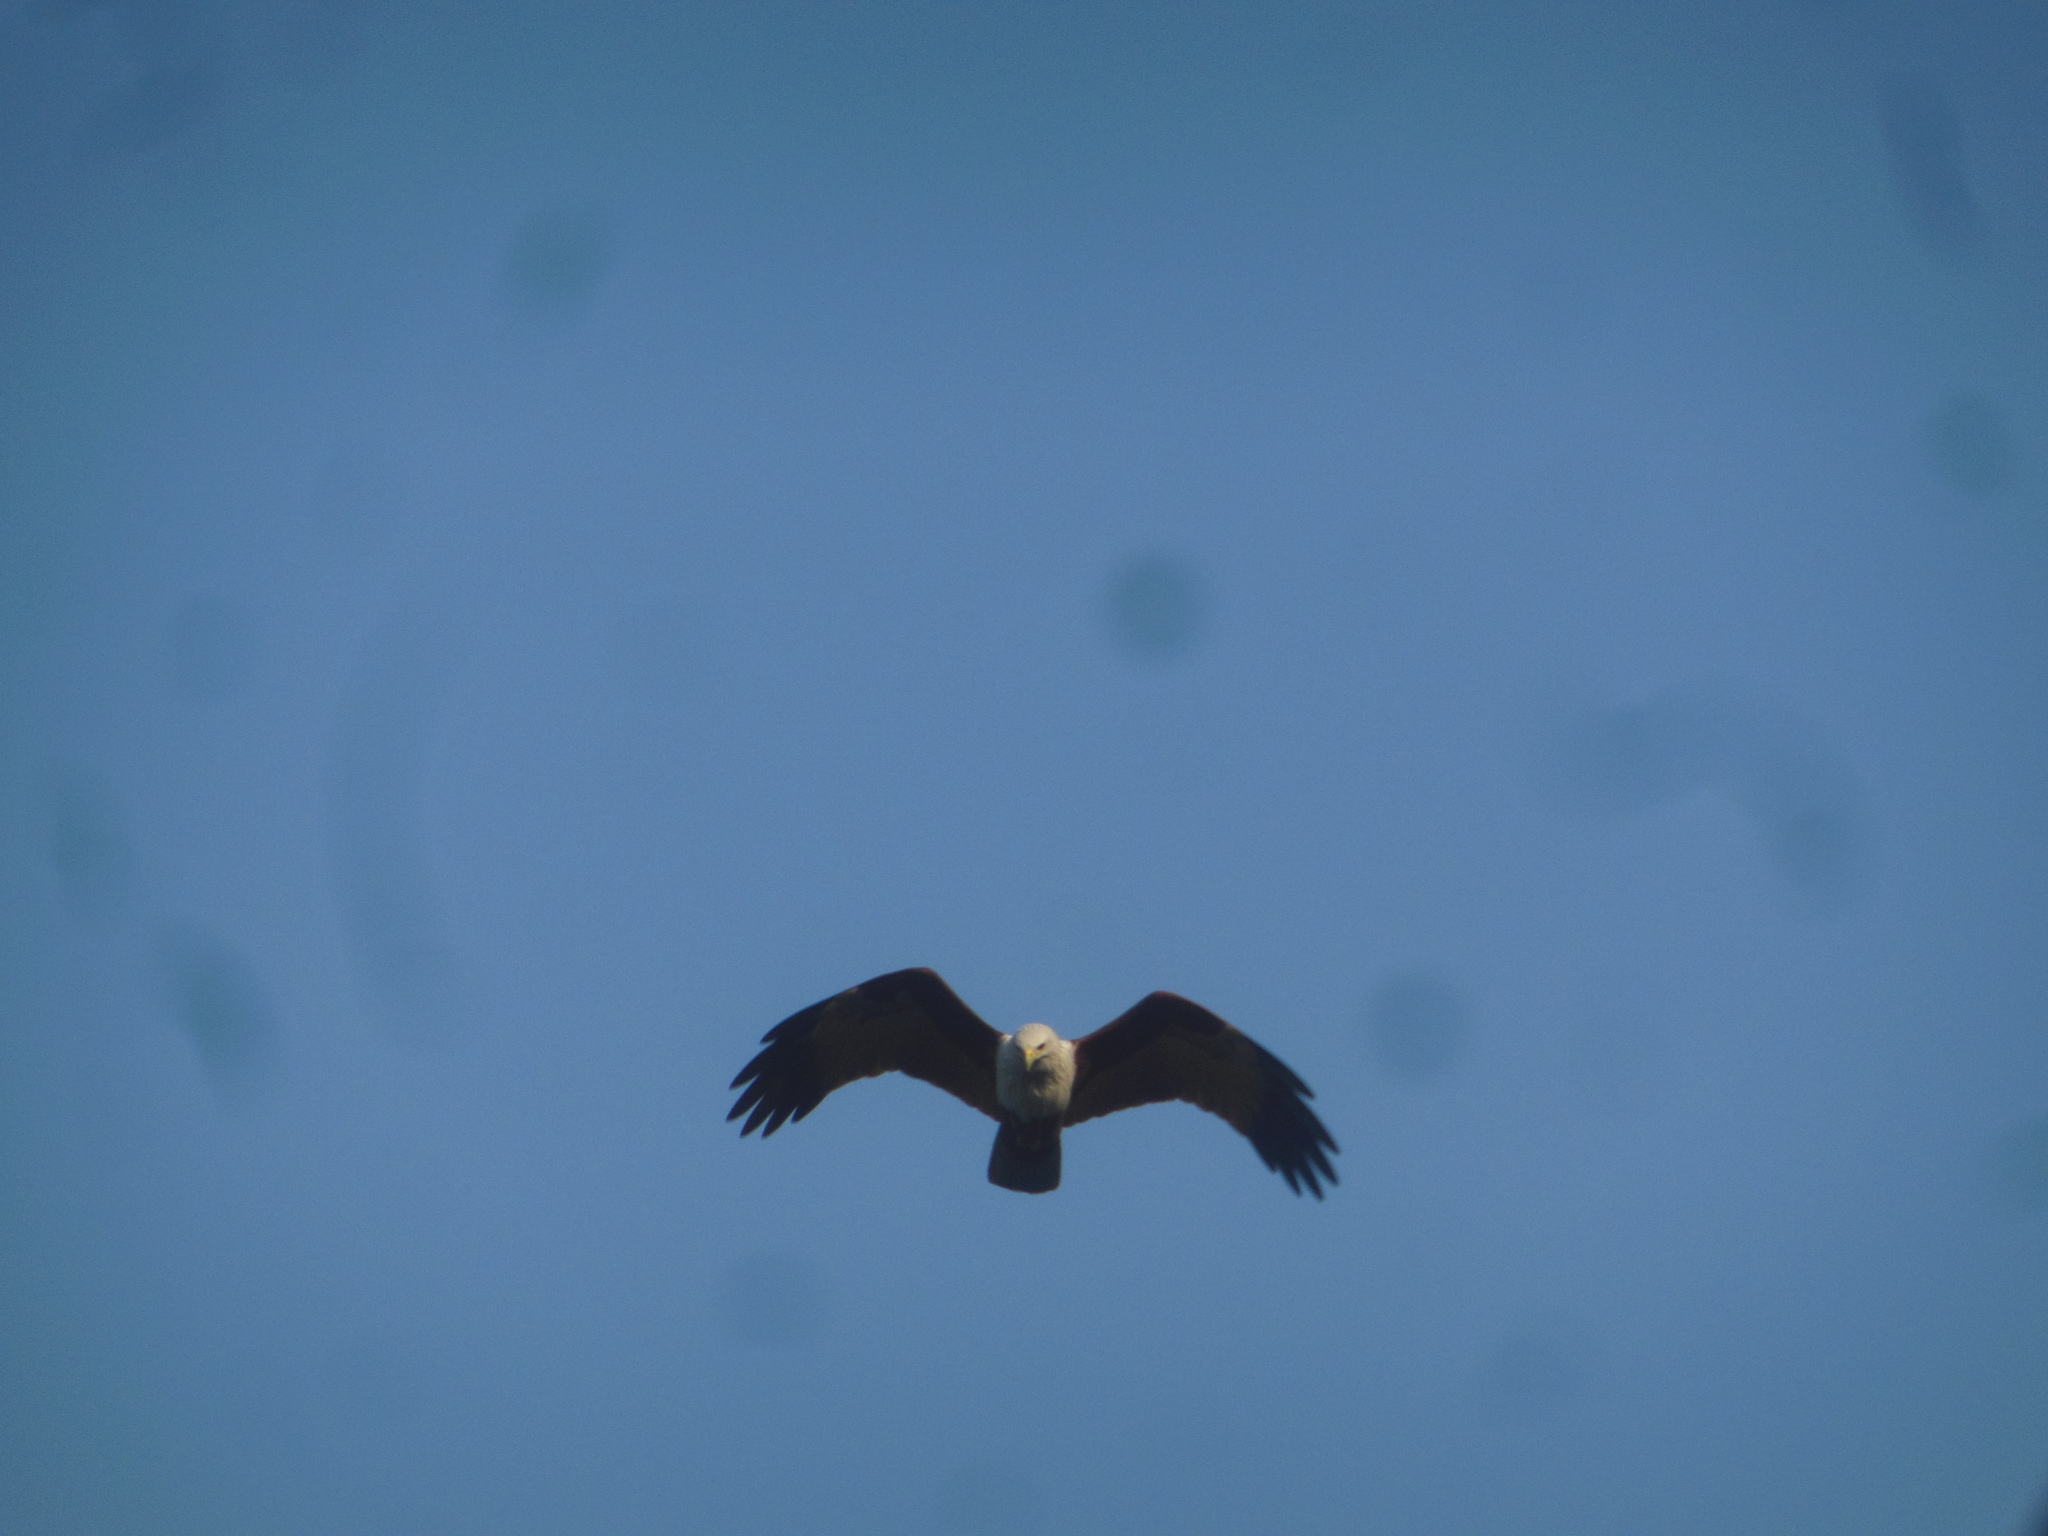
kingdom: Animalia
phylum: Chordata
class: Aves
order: Accipitriformes
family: Accipitridae
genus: Haliastur
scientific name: Haliastur indus
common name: Brahminy kite
